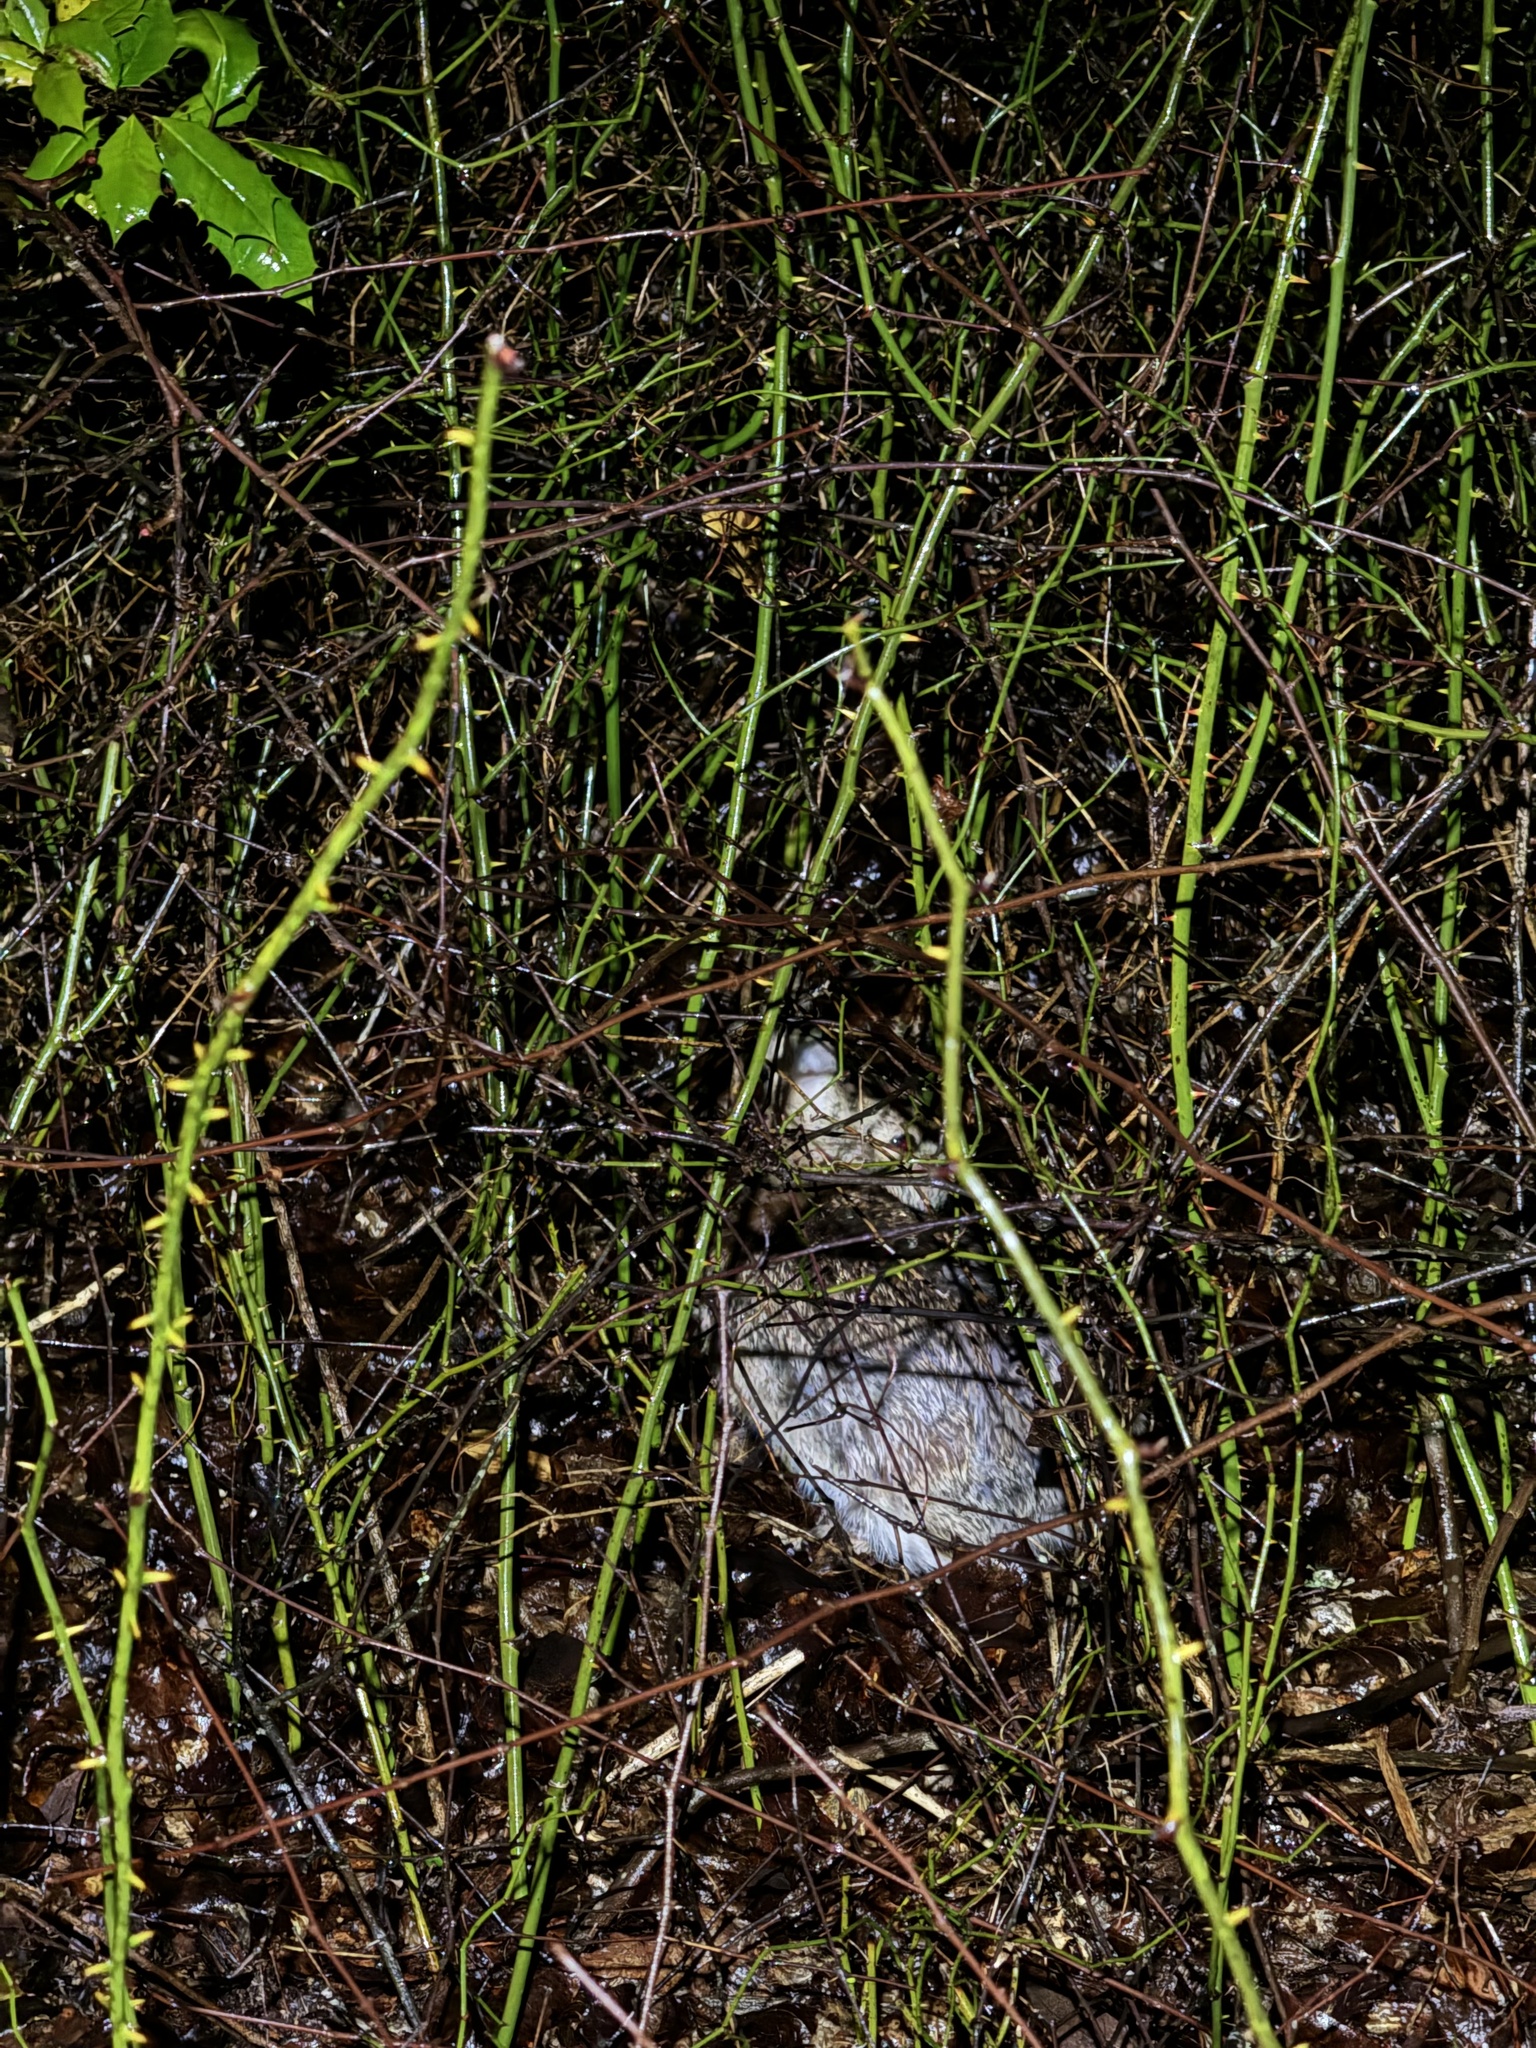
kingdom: Animalia
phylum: Chordata
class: Mammalia
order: Lagomorpha
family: Leporidae
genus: Sylvilagus
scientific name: Sylvilagus floridanus
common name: Eastern cottontail
